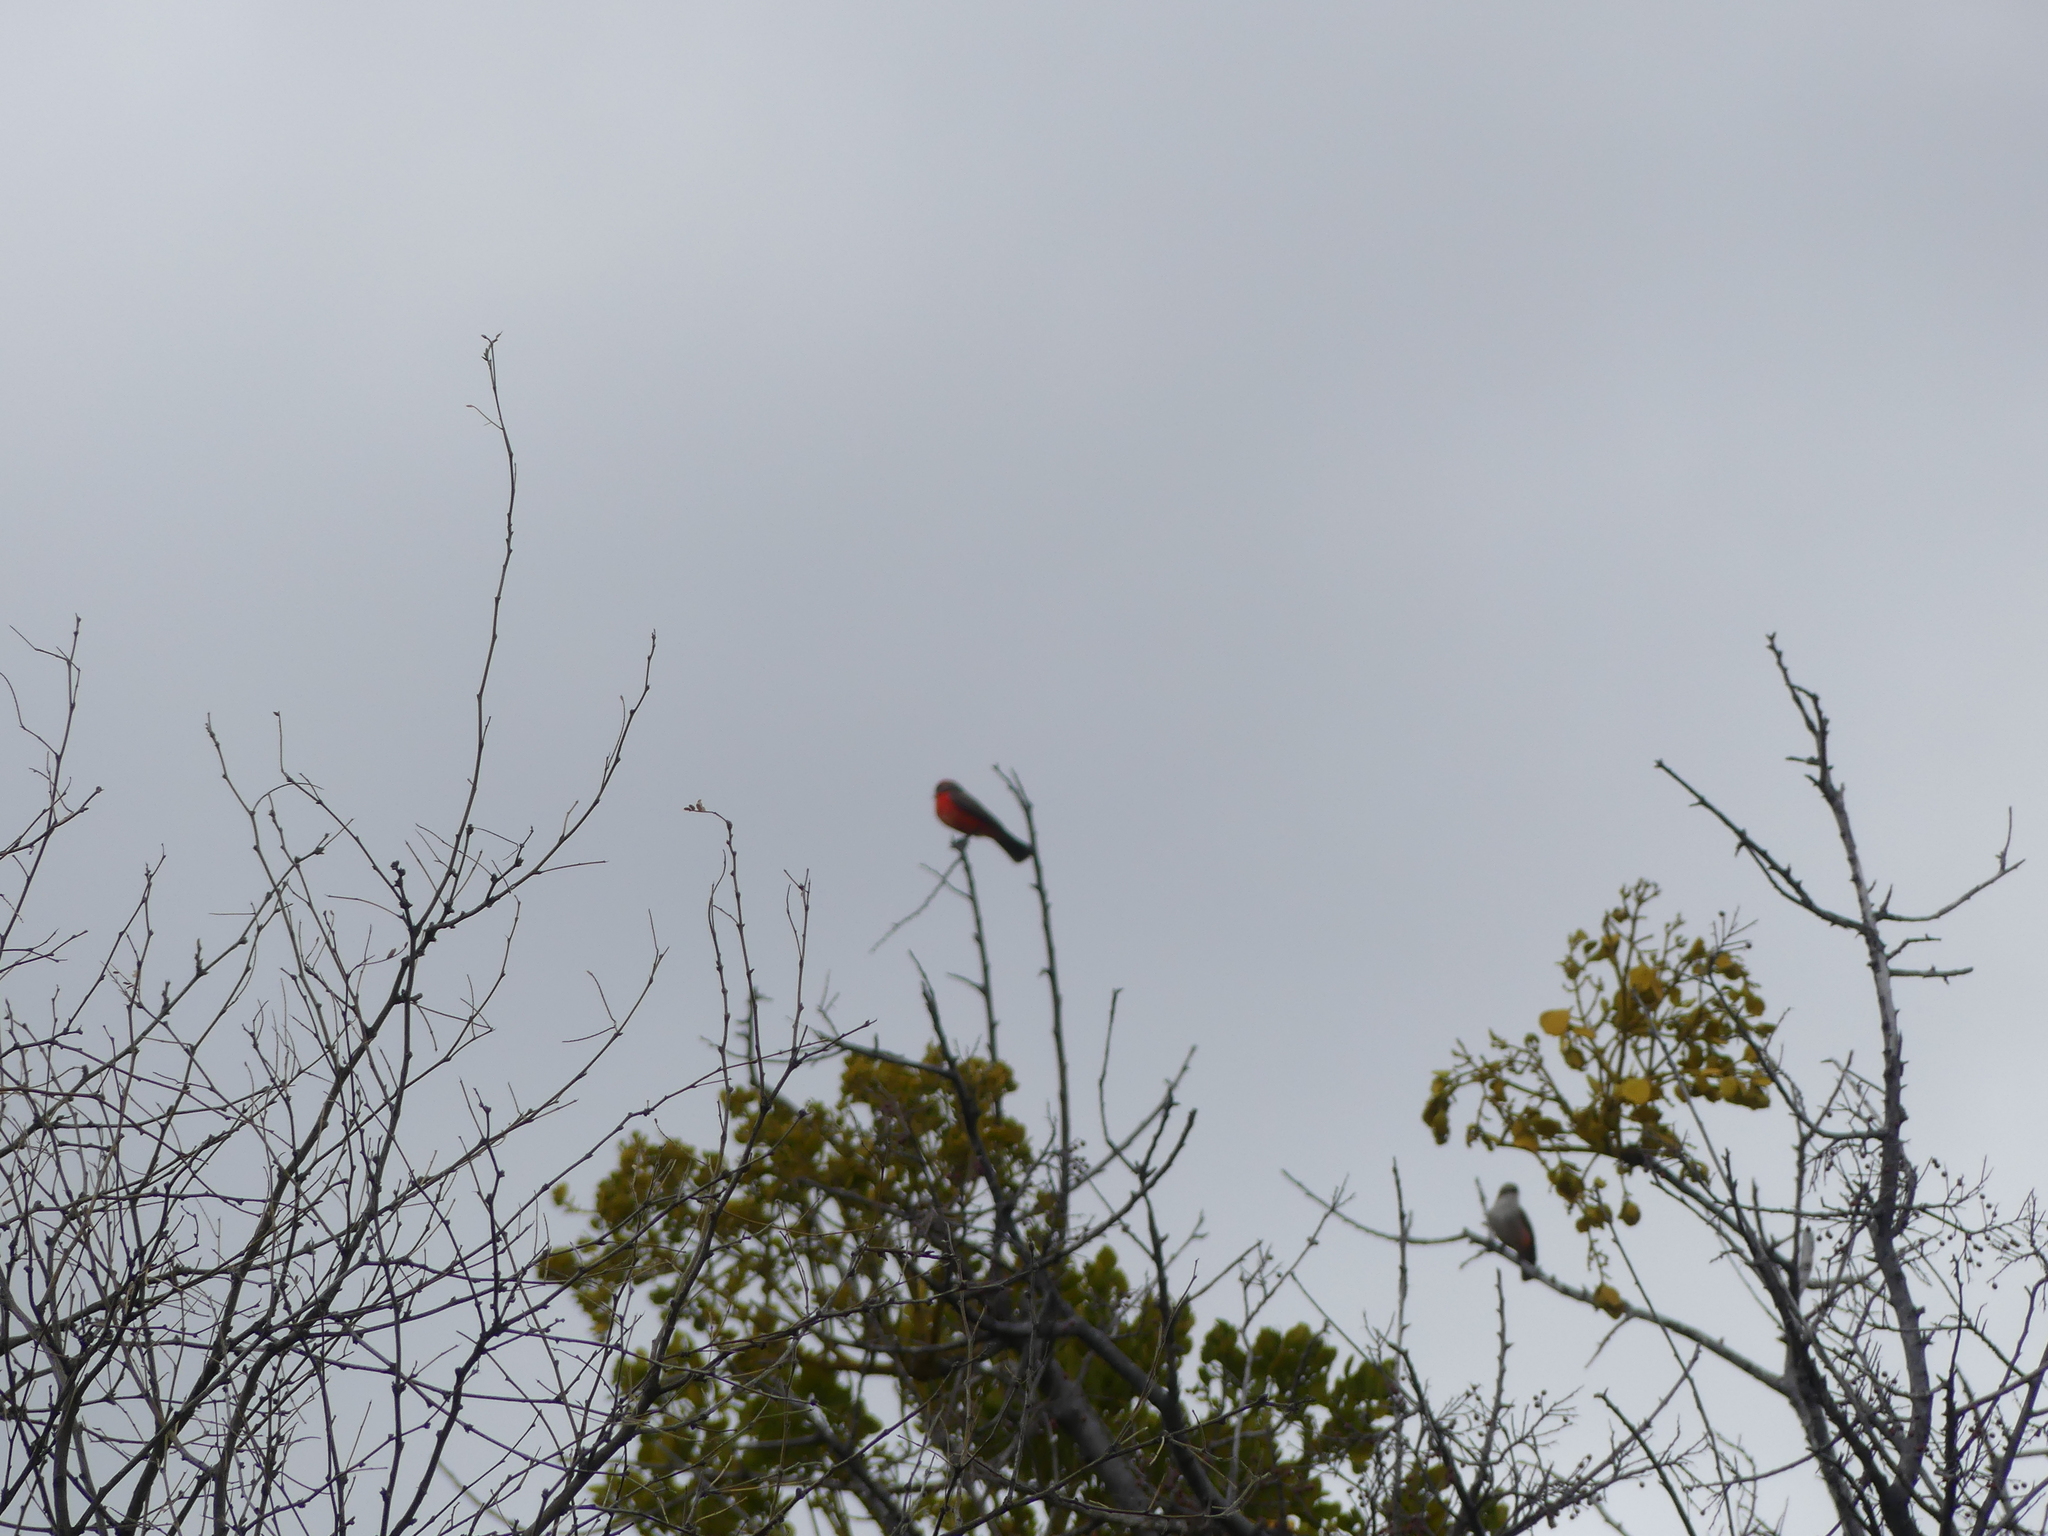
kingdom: Animalia
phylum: Chordata
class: Aves
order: Passeriformes
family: Tyrannidae
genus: Pyrocephalus
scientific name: Pyrocephalus rubinus
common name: Vermilion flycatcher
